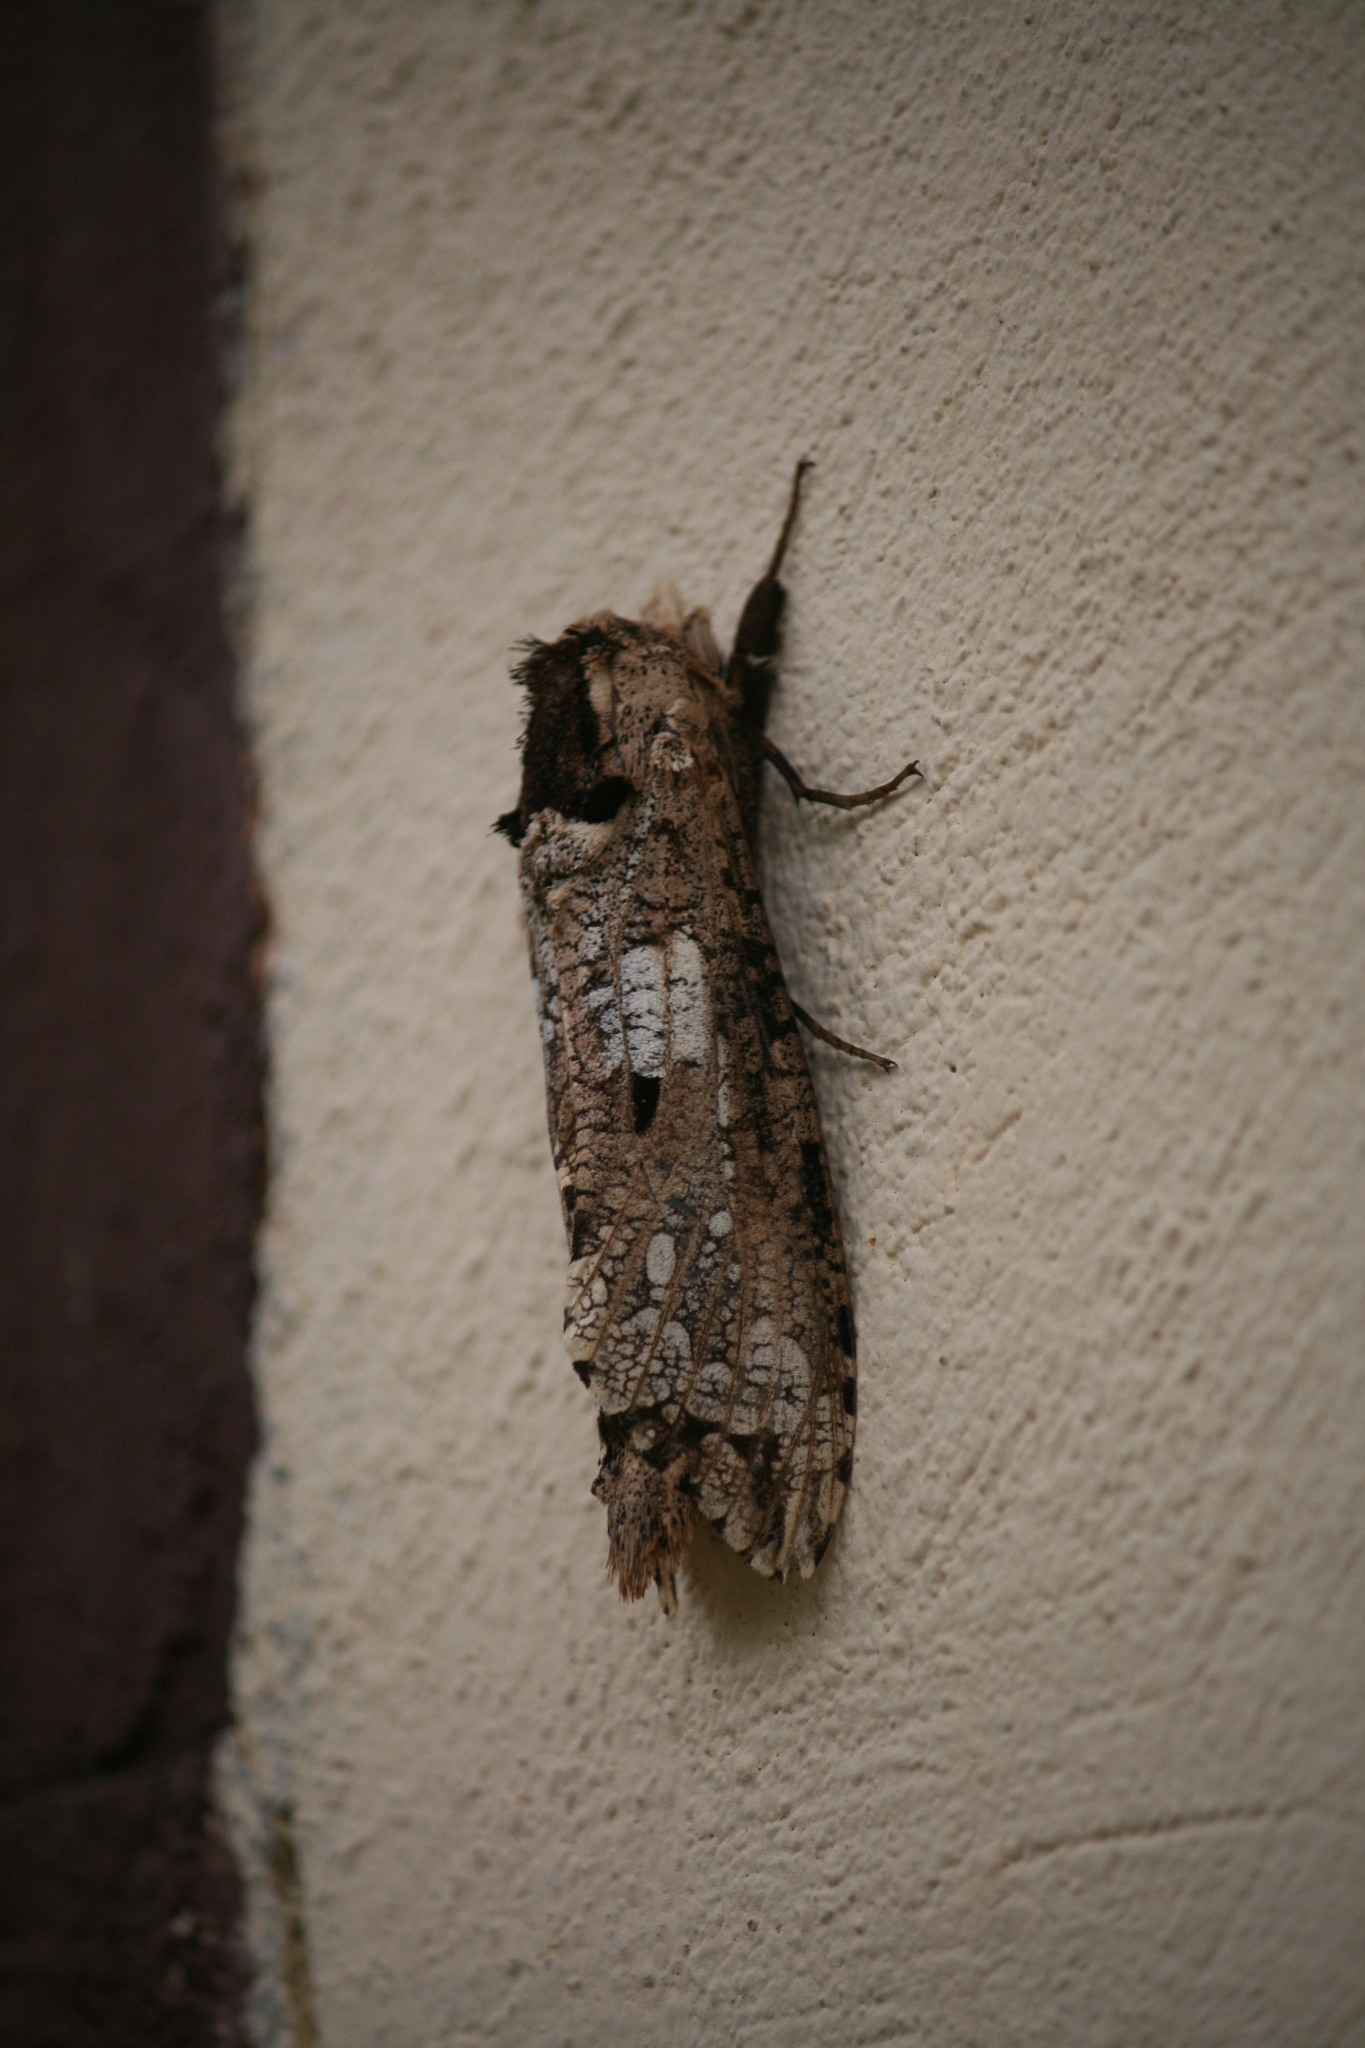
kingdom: Animalia
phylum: Arthropoda
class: Insecta
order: Lepidoptera
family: Cossidae
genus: Strigocossus
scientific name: Strigocossus crassus
